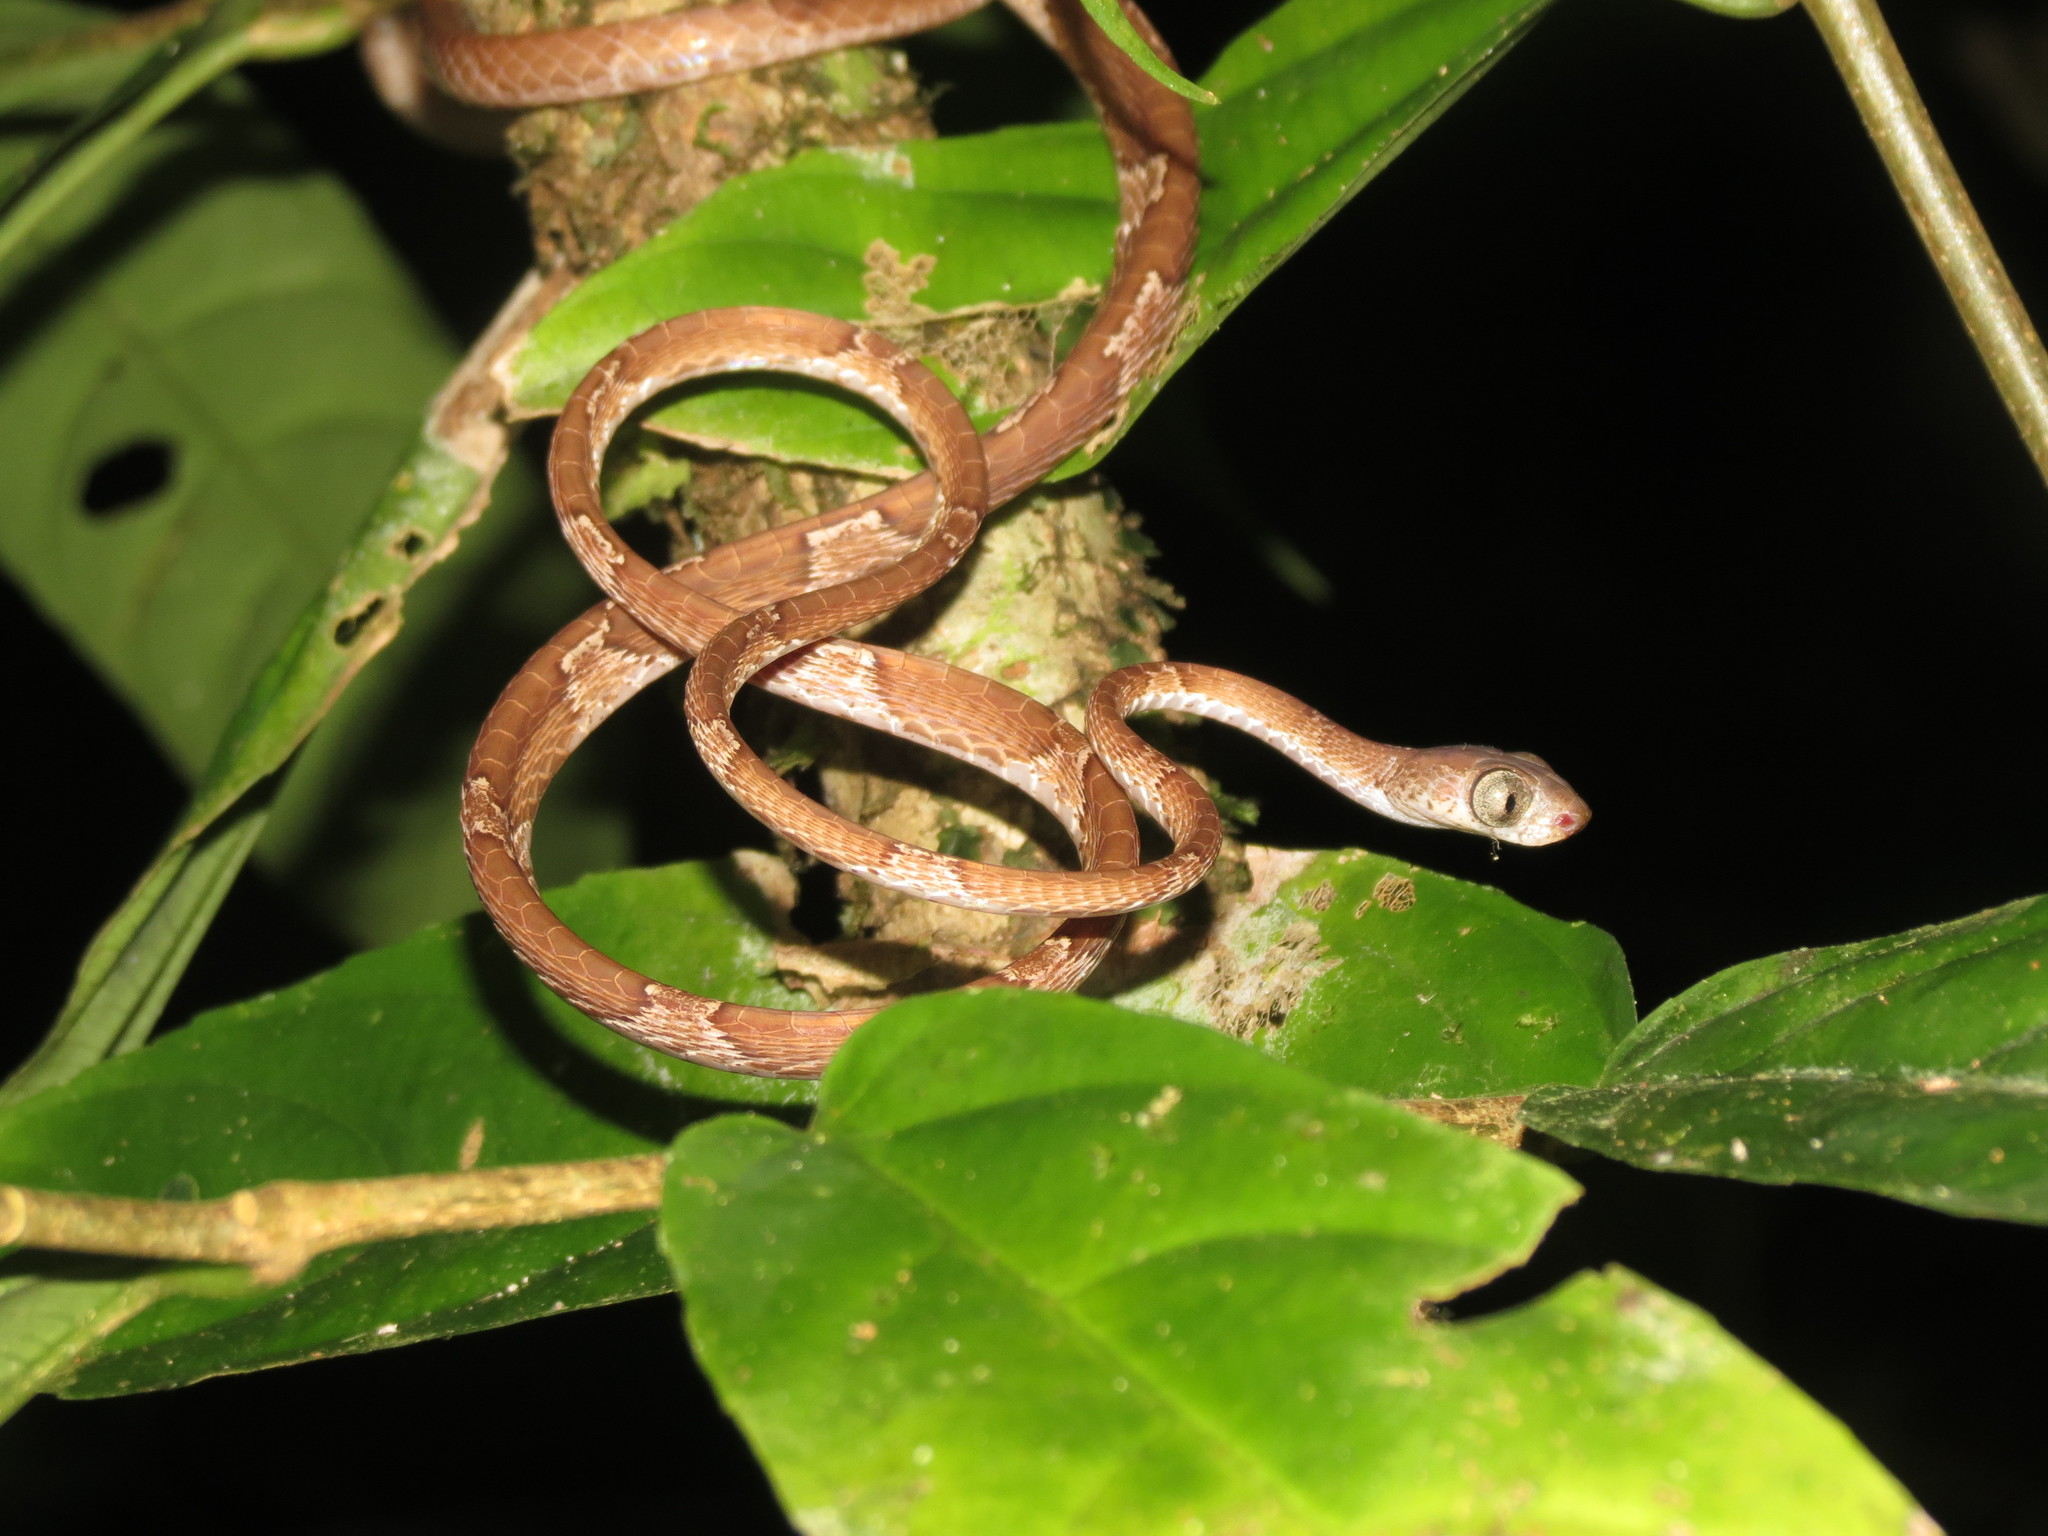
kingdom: Animalia
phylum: Chordata
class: Squamata
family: Colubridae
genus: Imantodes
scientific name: Imantodes cenchoa
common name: Blunthead tree snake
